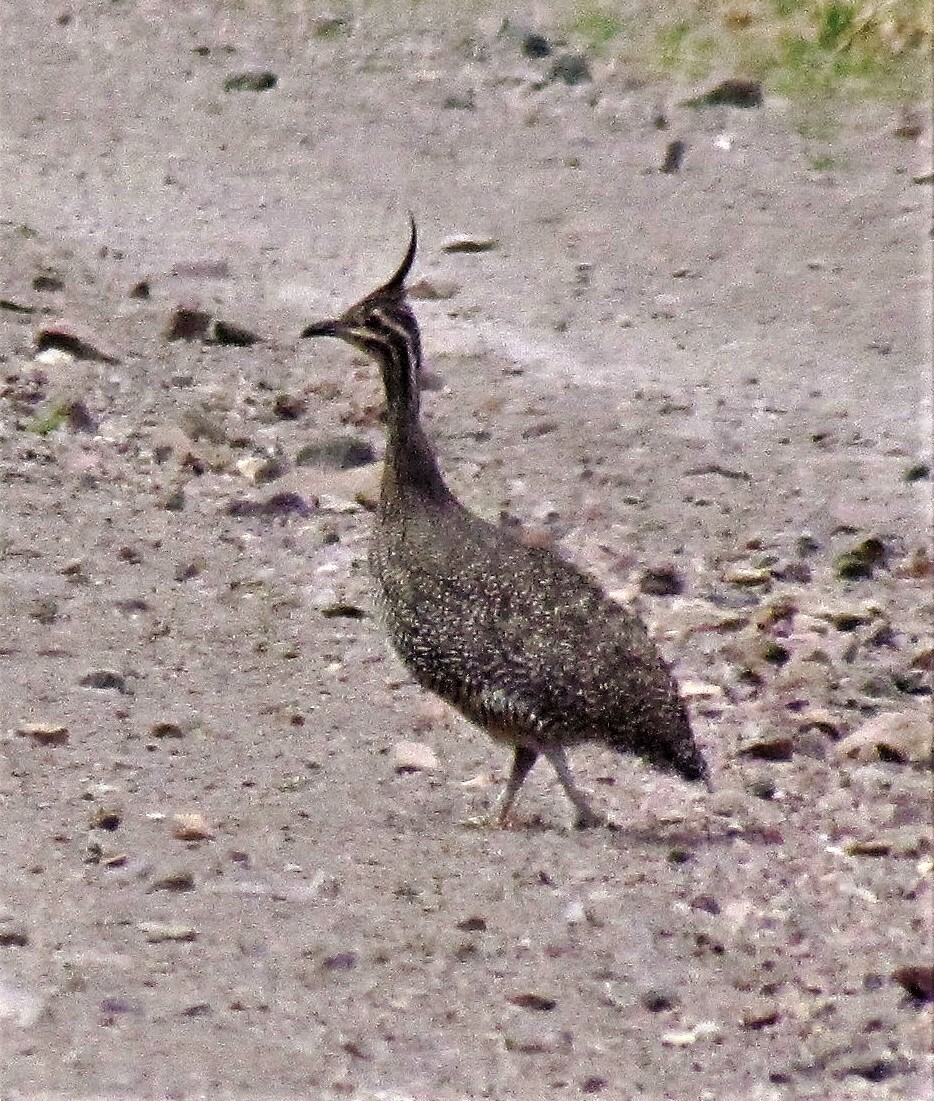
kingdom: Animalia
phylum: Chordata
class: Aves
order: Tinamiformes
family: Tinamidae
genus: Eudromia
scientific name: Eudromia elegans
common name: Elegant crested tinamou
